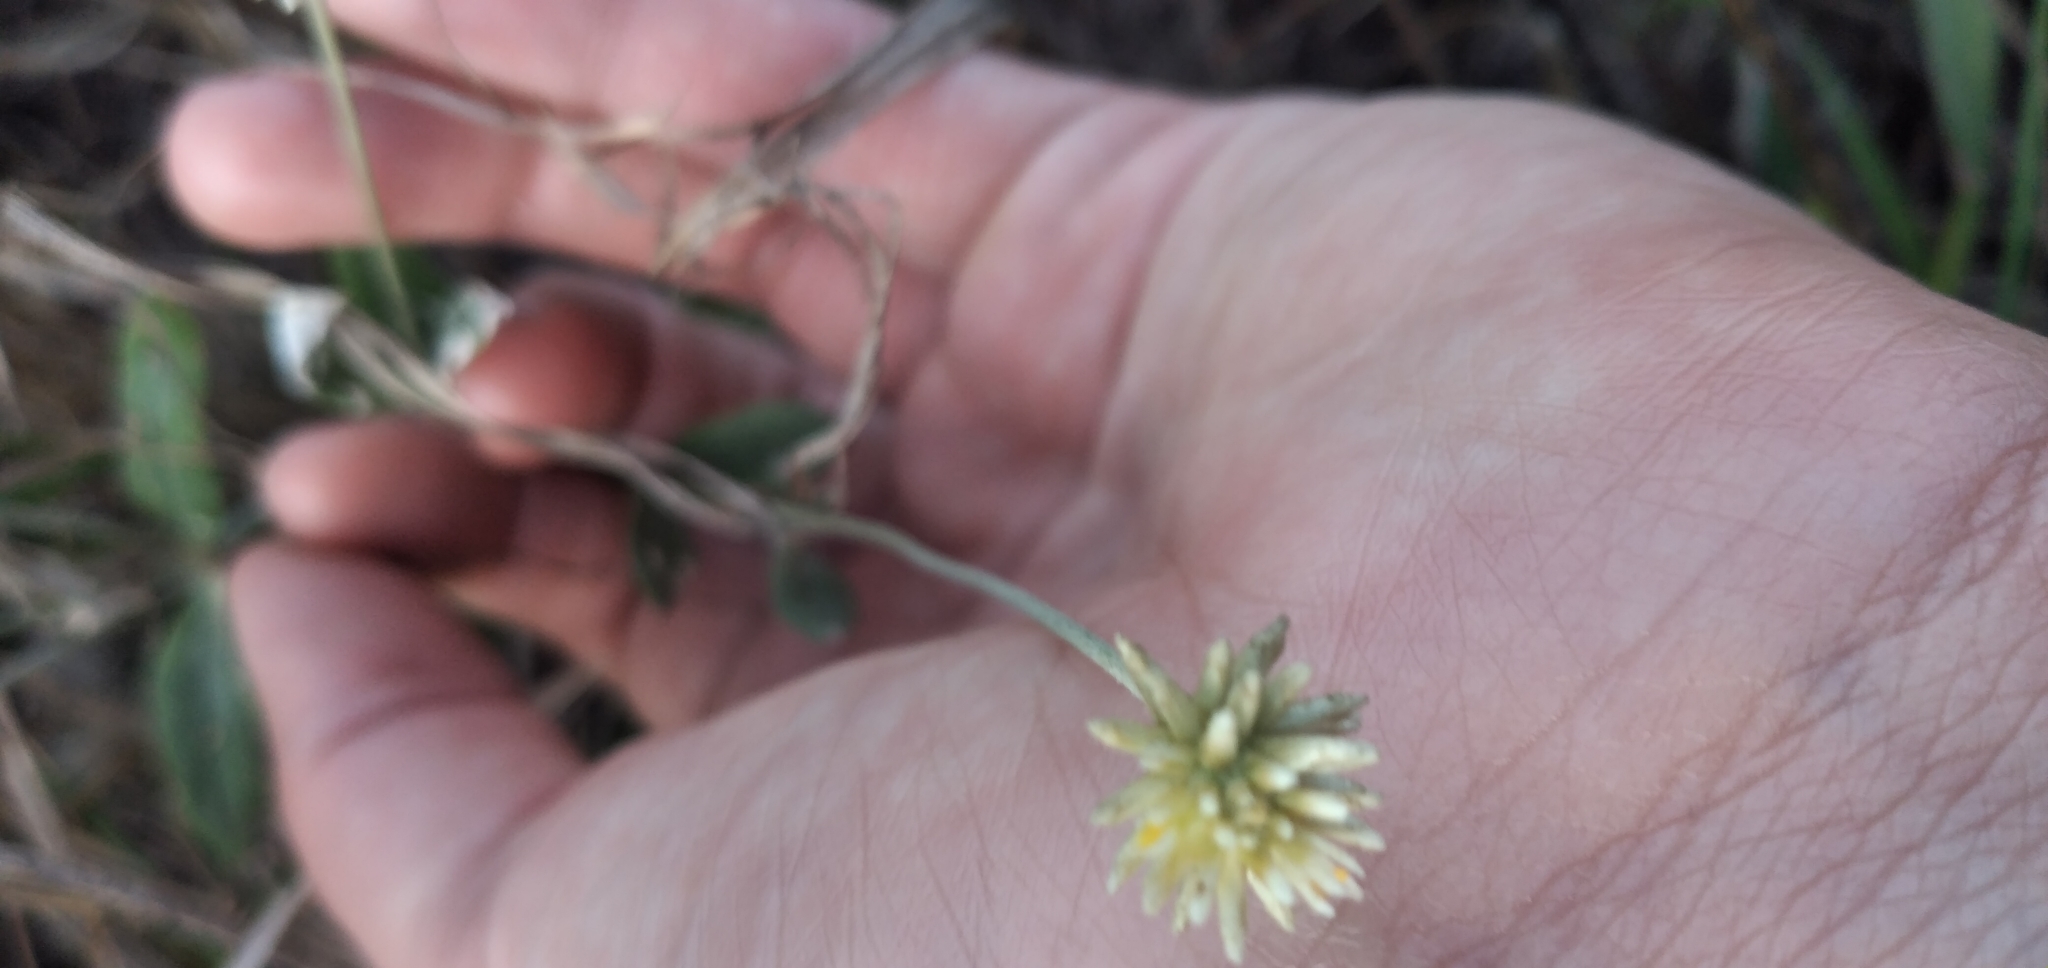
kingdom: Plantae
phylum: Tracheophyta
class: Magnoliopsida
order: Caryophyllales
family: Amaranthaceae
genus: Pfaffia
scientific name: Pfaffia gnaphalioides
